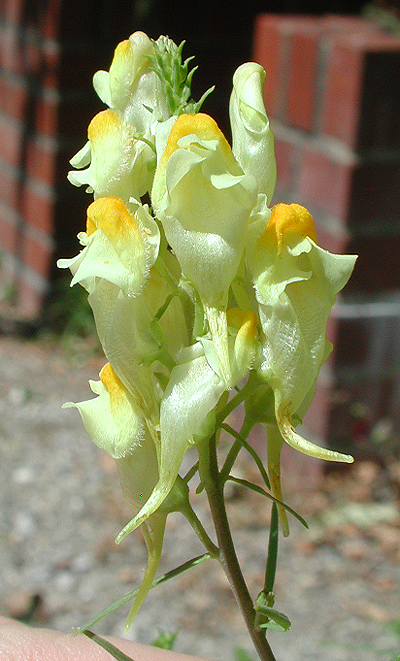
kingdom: Plantae
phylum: Tracheophyta
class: Magnoliopsida
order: Lamiales
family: Plantaginaceae
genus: Linaria
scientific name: Linaria vulgaris
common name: Butter and eggs
